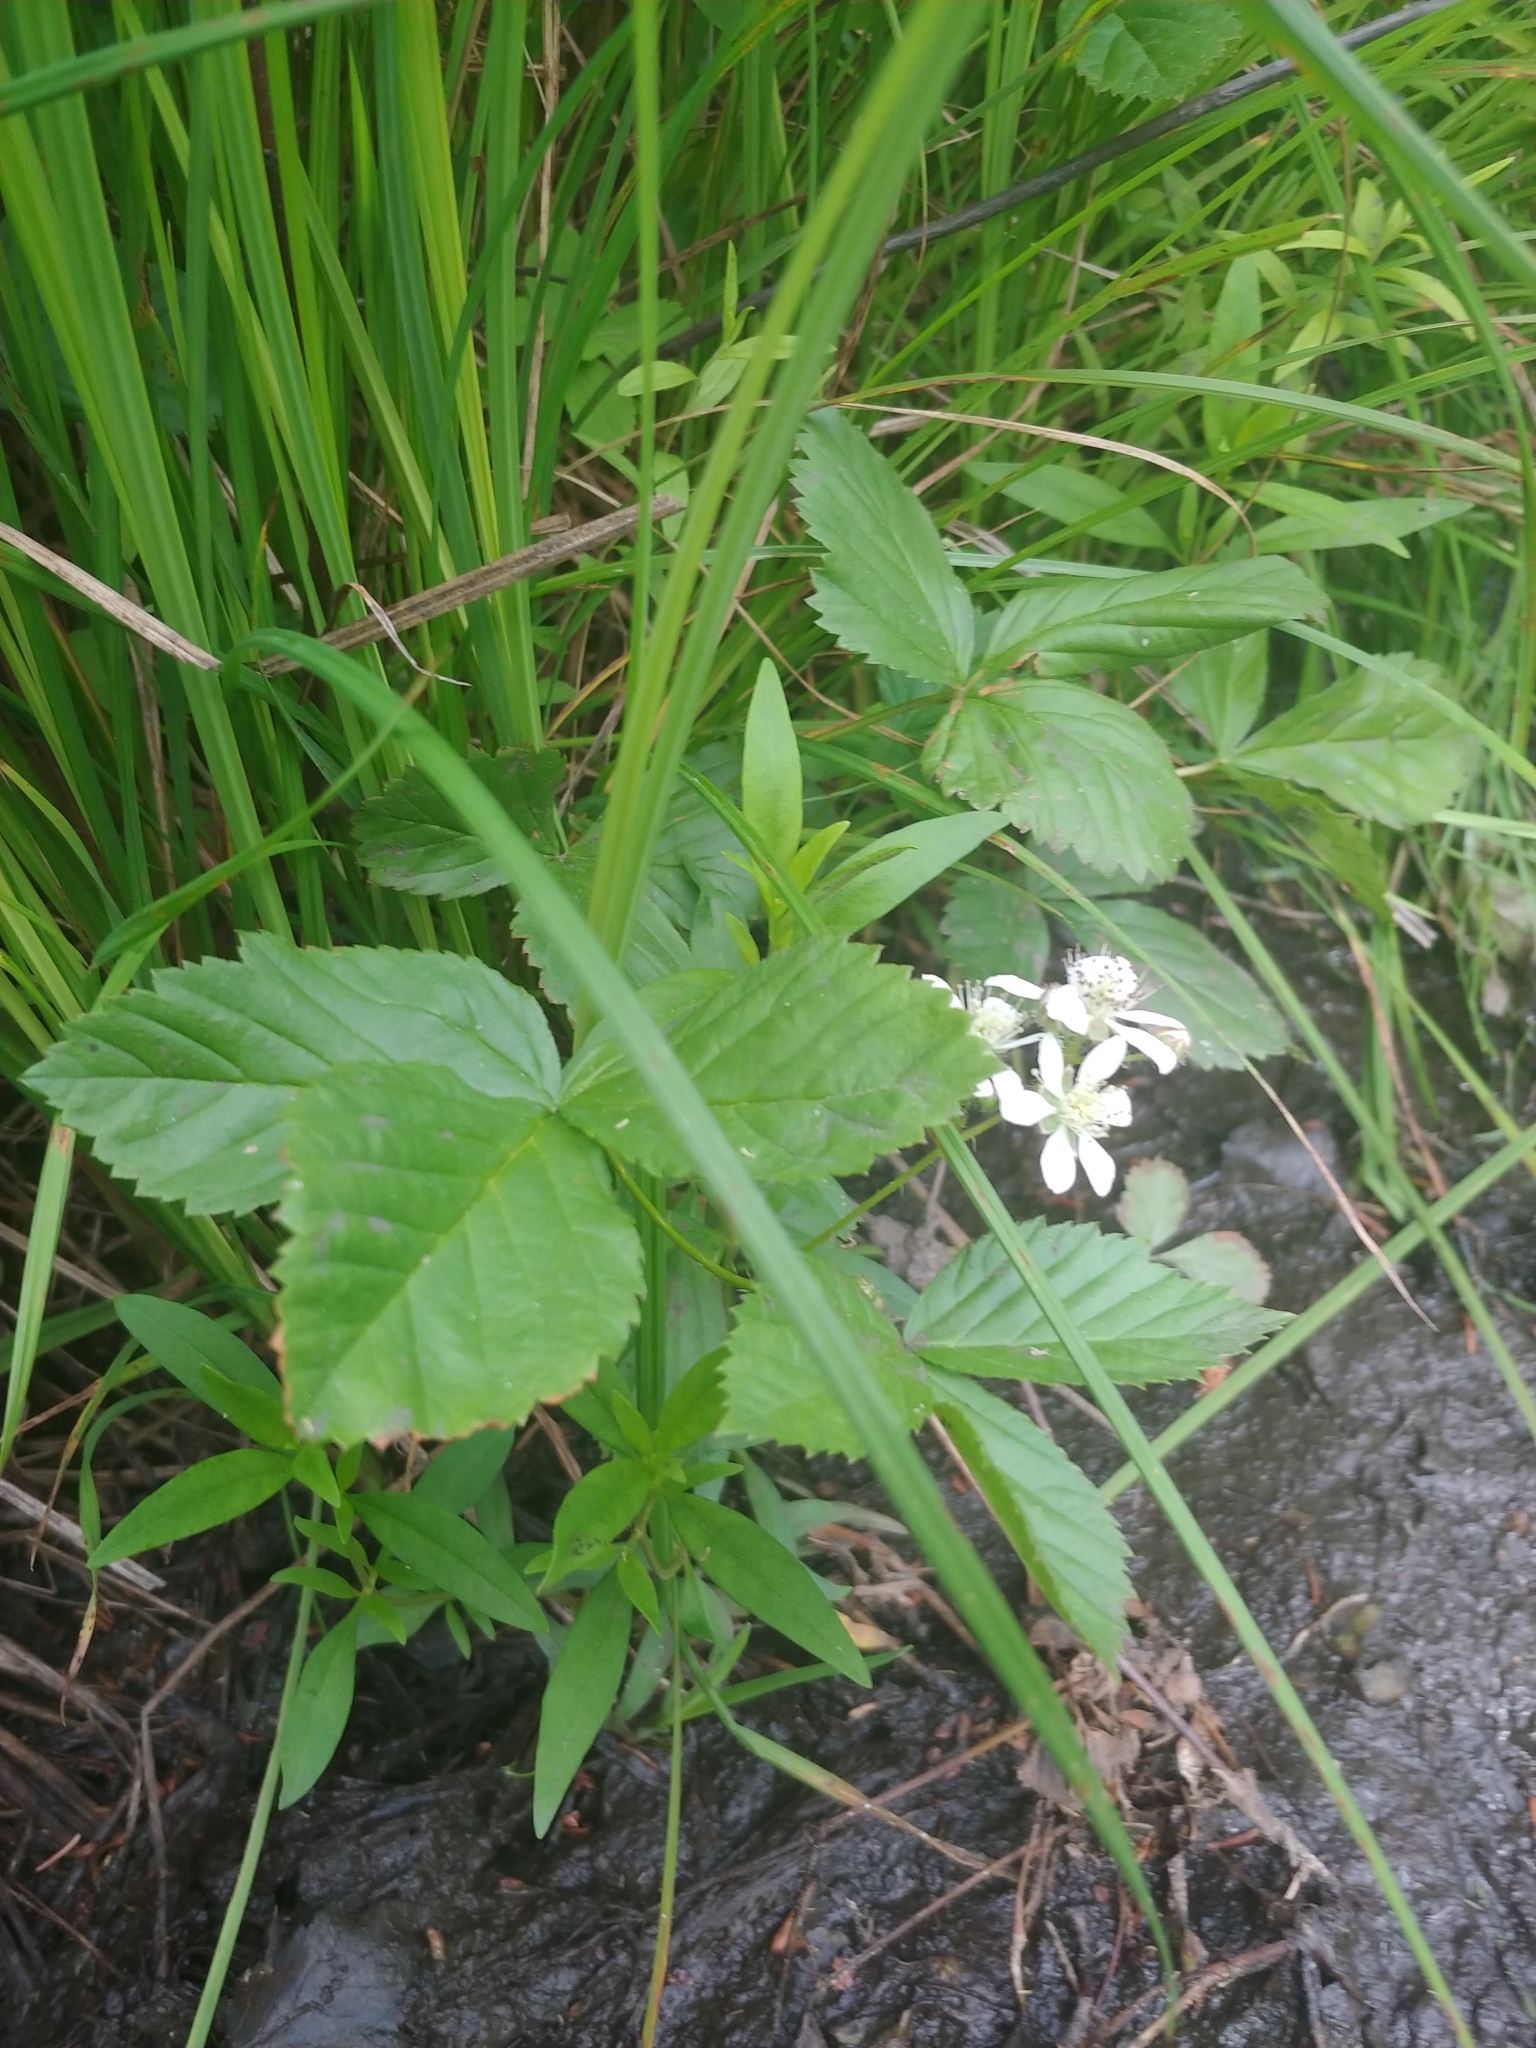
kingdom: Plantae
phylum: Tracheophyta
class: Magnoliopsida
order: Rosales
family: Rosaceae
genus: Rubus
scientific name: Rubus hispidus
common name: Running blackberry
